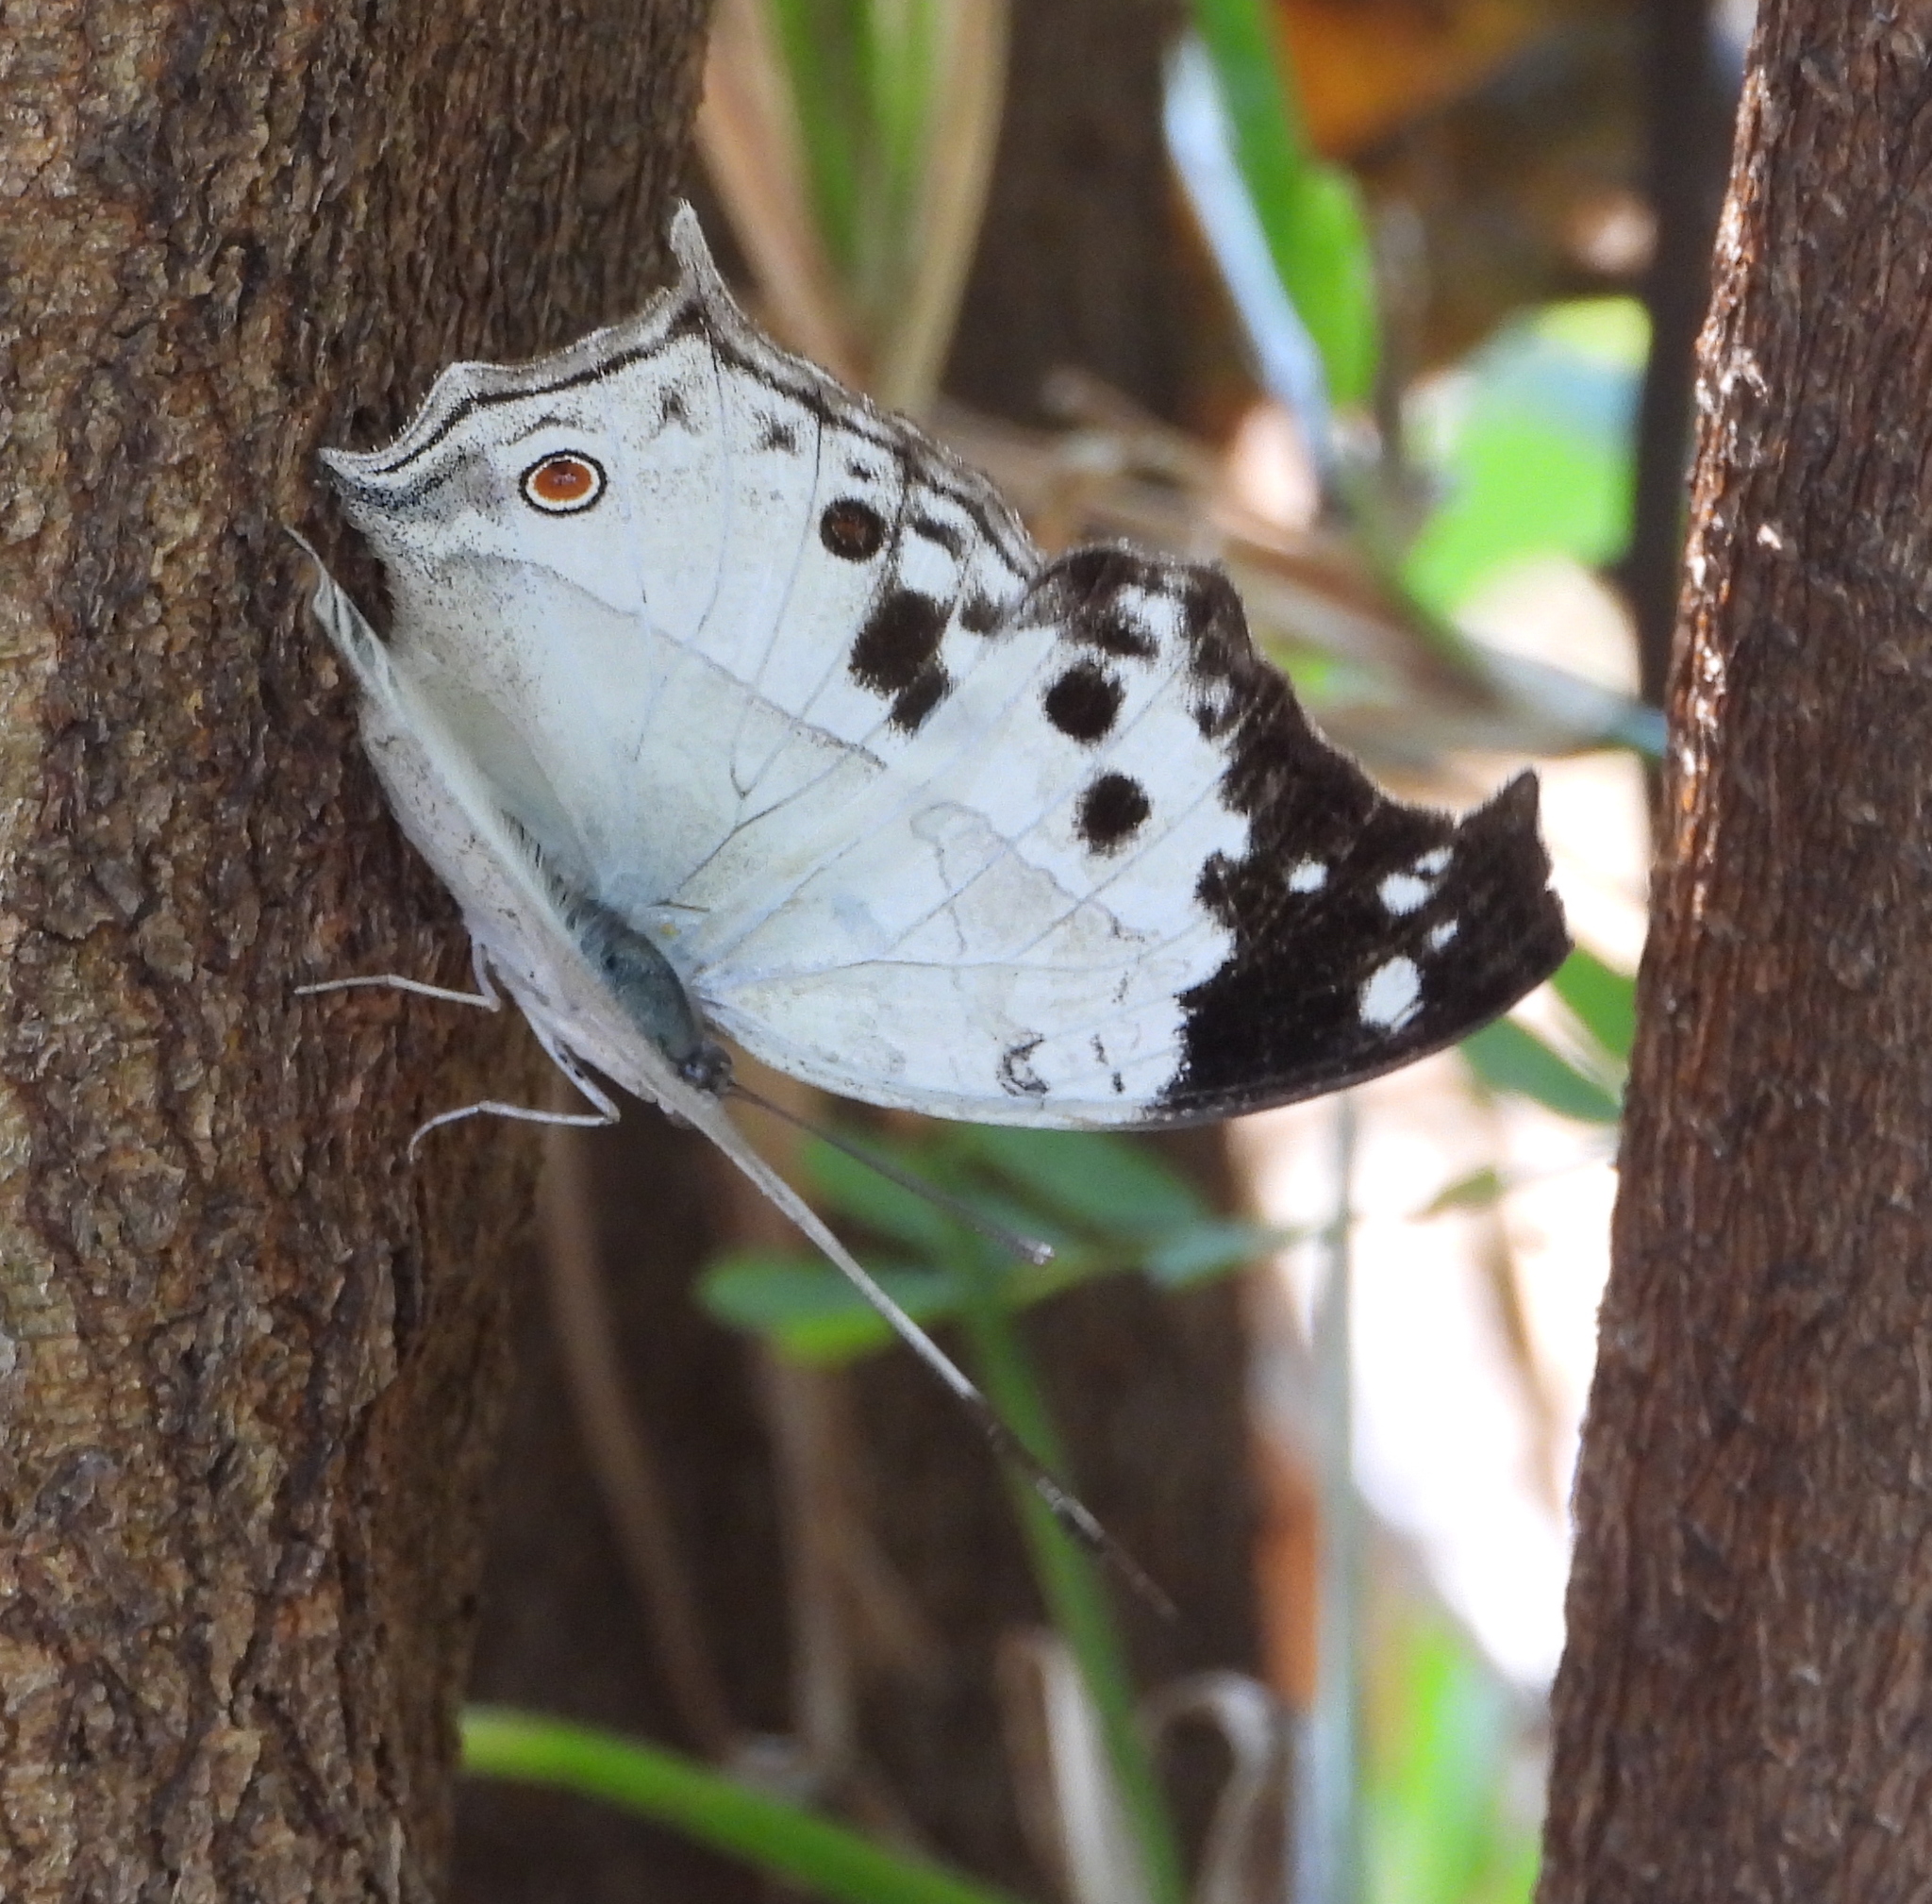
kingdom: Animalia
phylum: Arthropoda
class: Insecta
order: Lepidoptera
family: Nymphalidae
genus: Salamis
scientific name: Salamis
